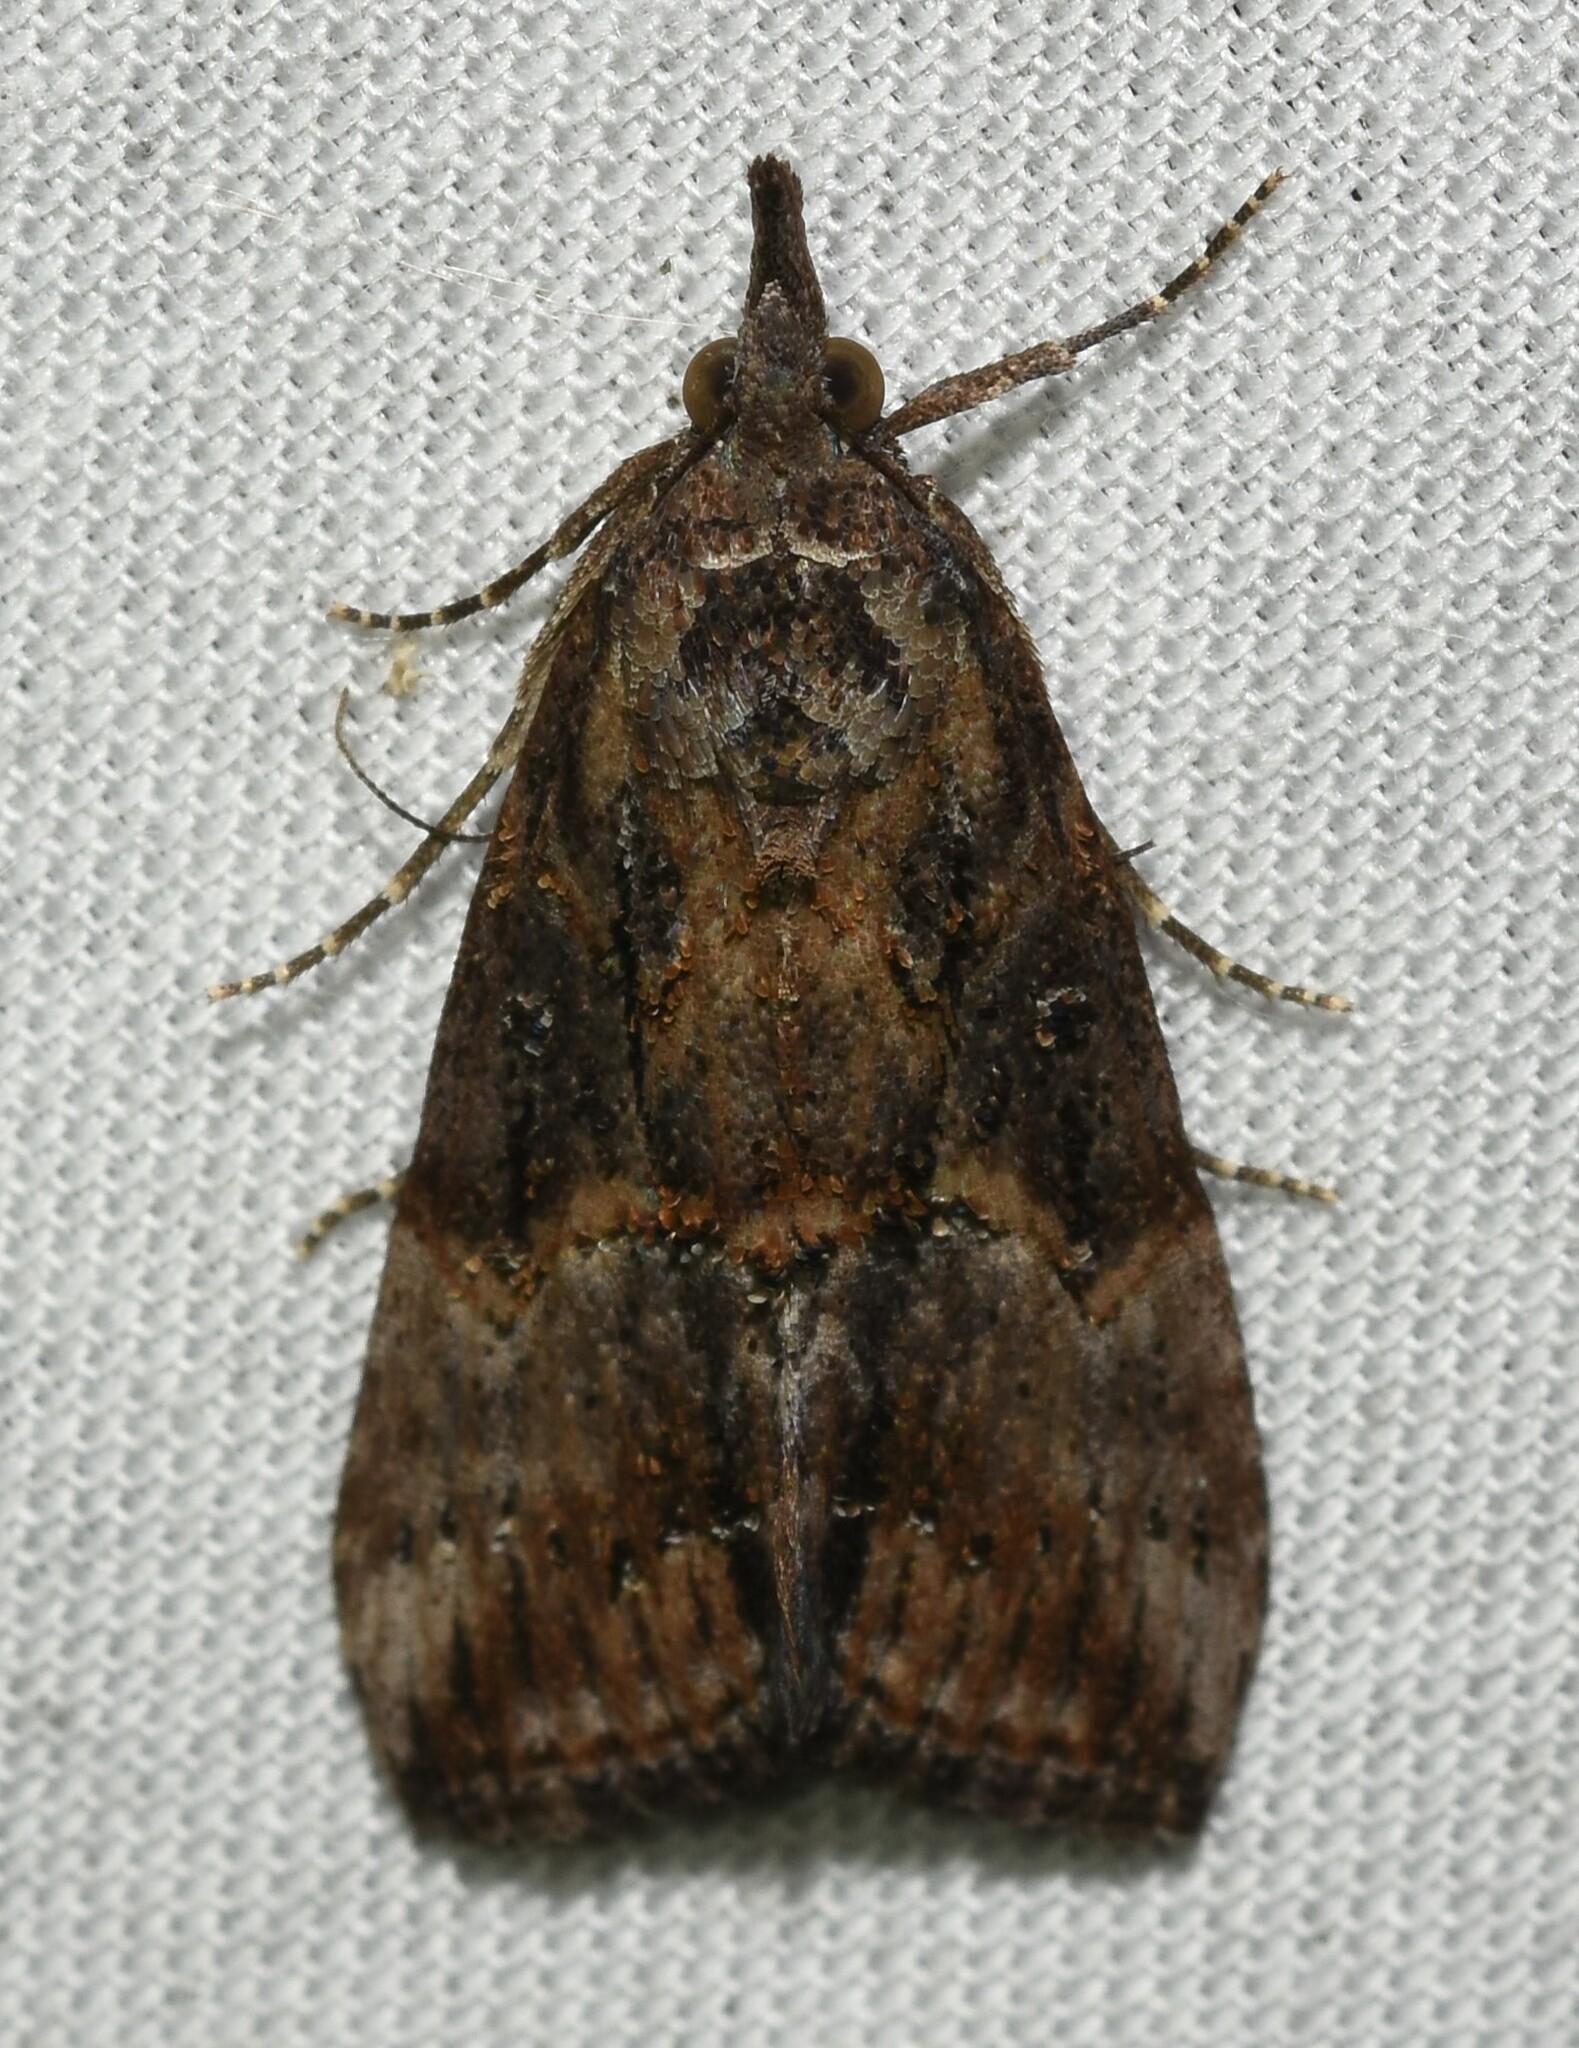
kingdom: Animalia
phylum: Arthropoda
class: Insecta
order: Lepidoptera
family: Erebidae
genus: Hypena
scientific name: Hypena scabra
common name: Green cloverworm
